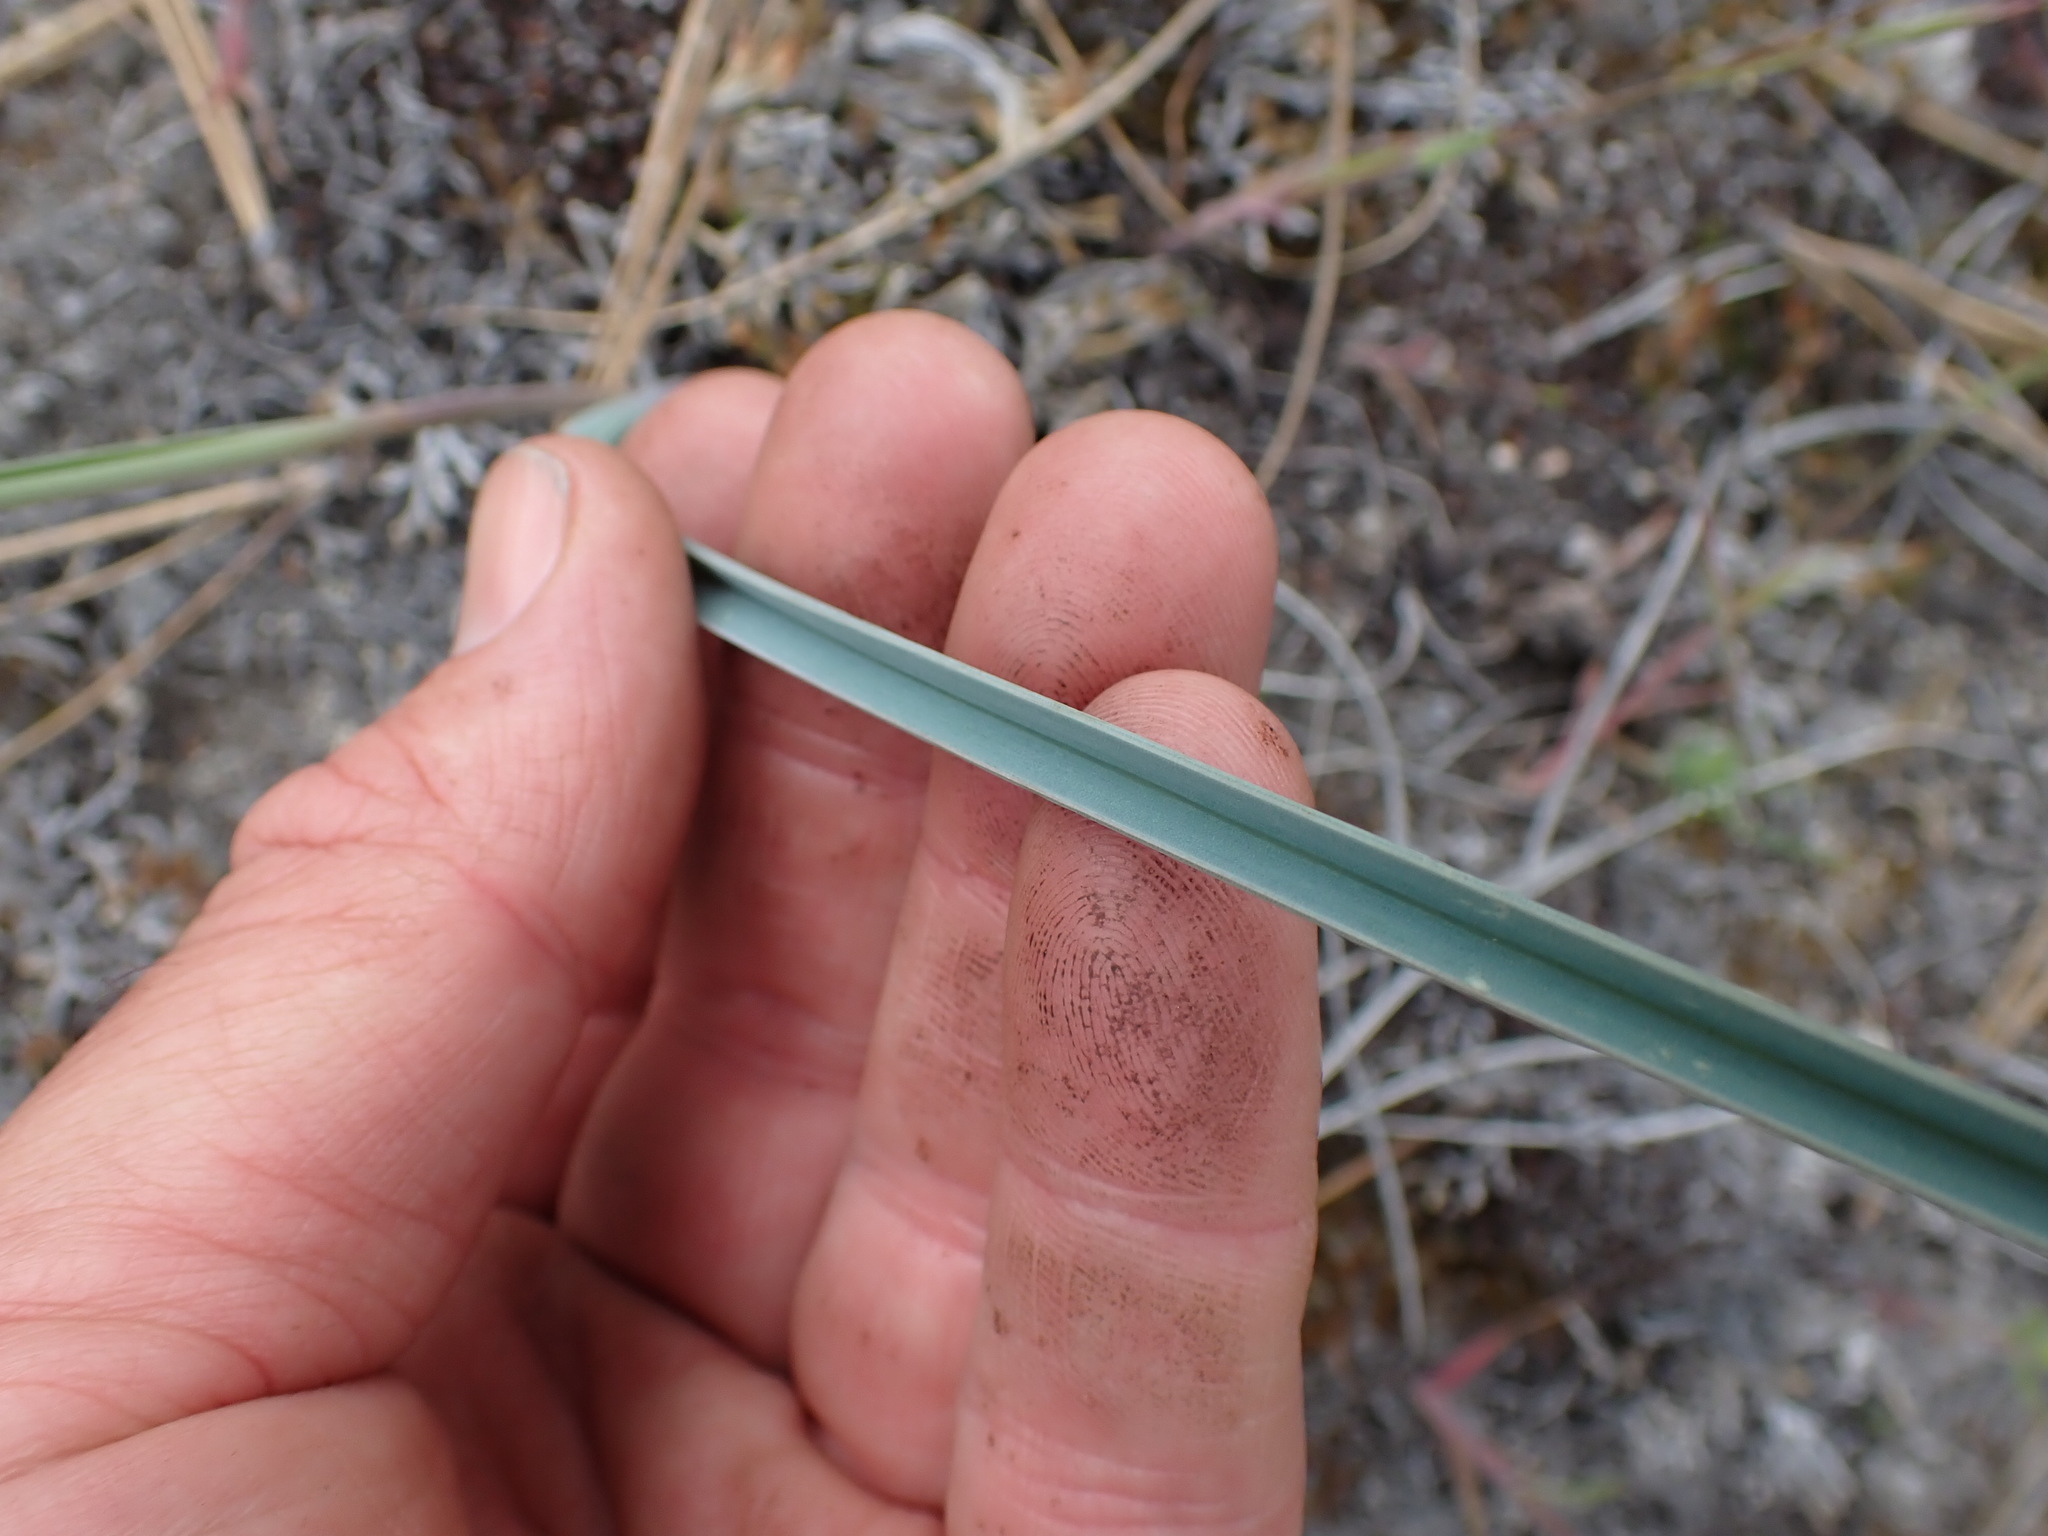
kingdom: Plantae
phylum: Tracheophyta
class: Liliopsida
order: Liliales
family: Liliaceae
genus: Calochortus
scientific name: Calochortus macrocarpus
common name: Green-band mariposa lily
